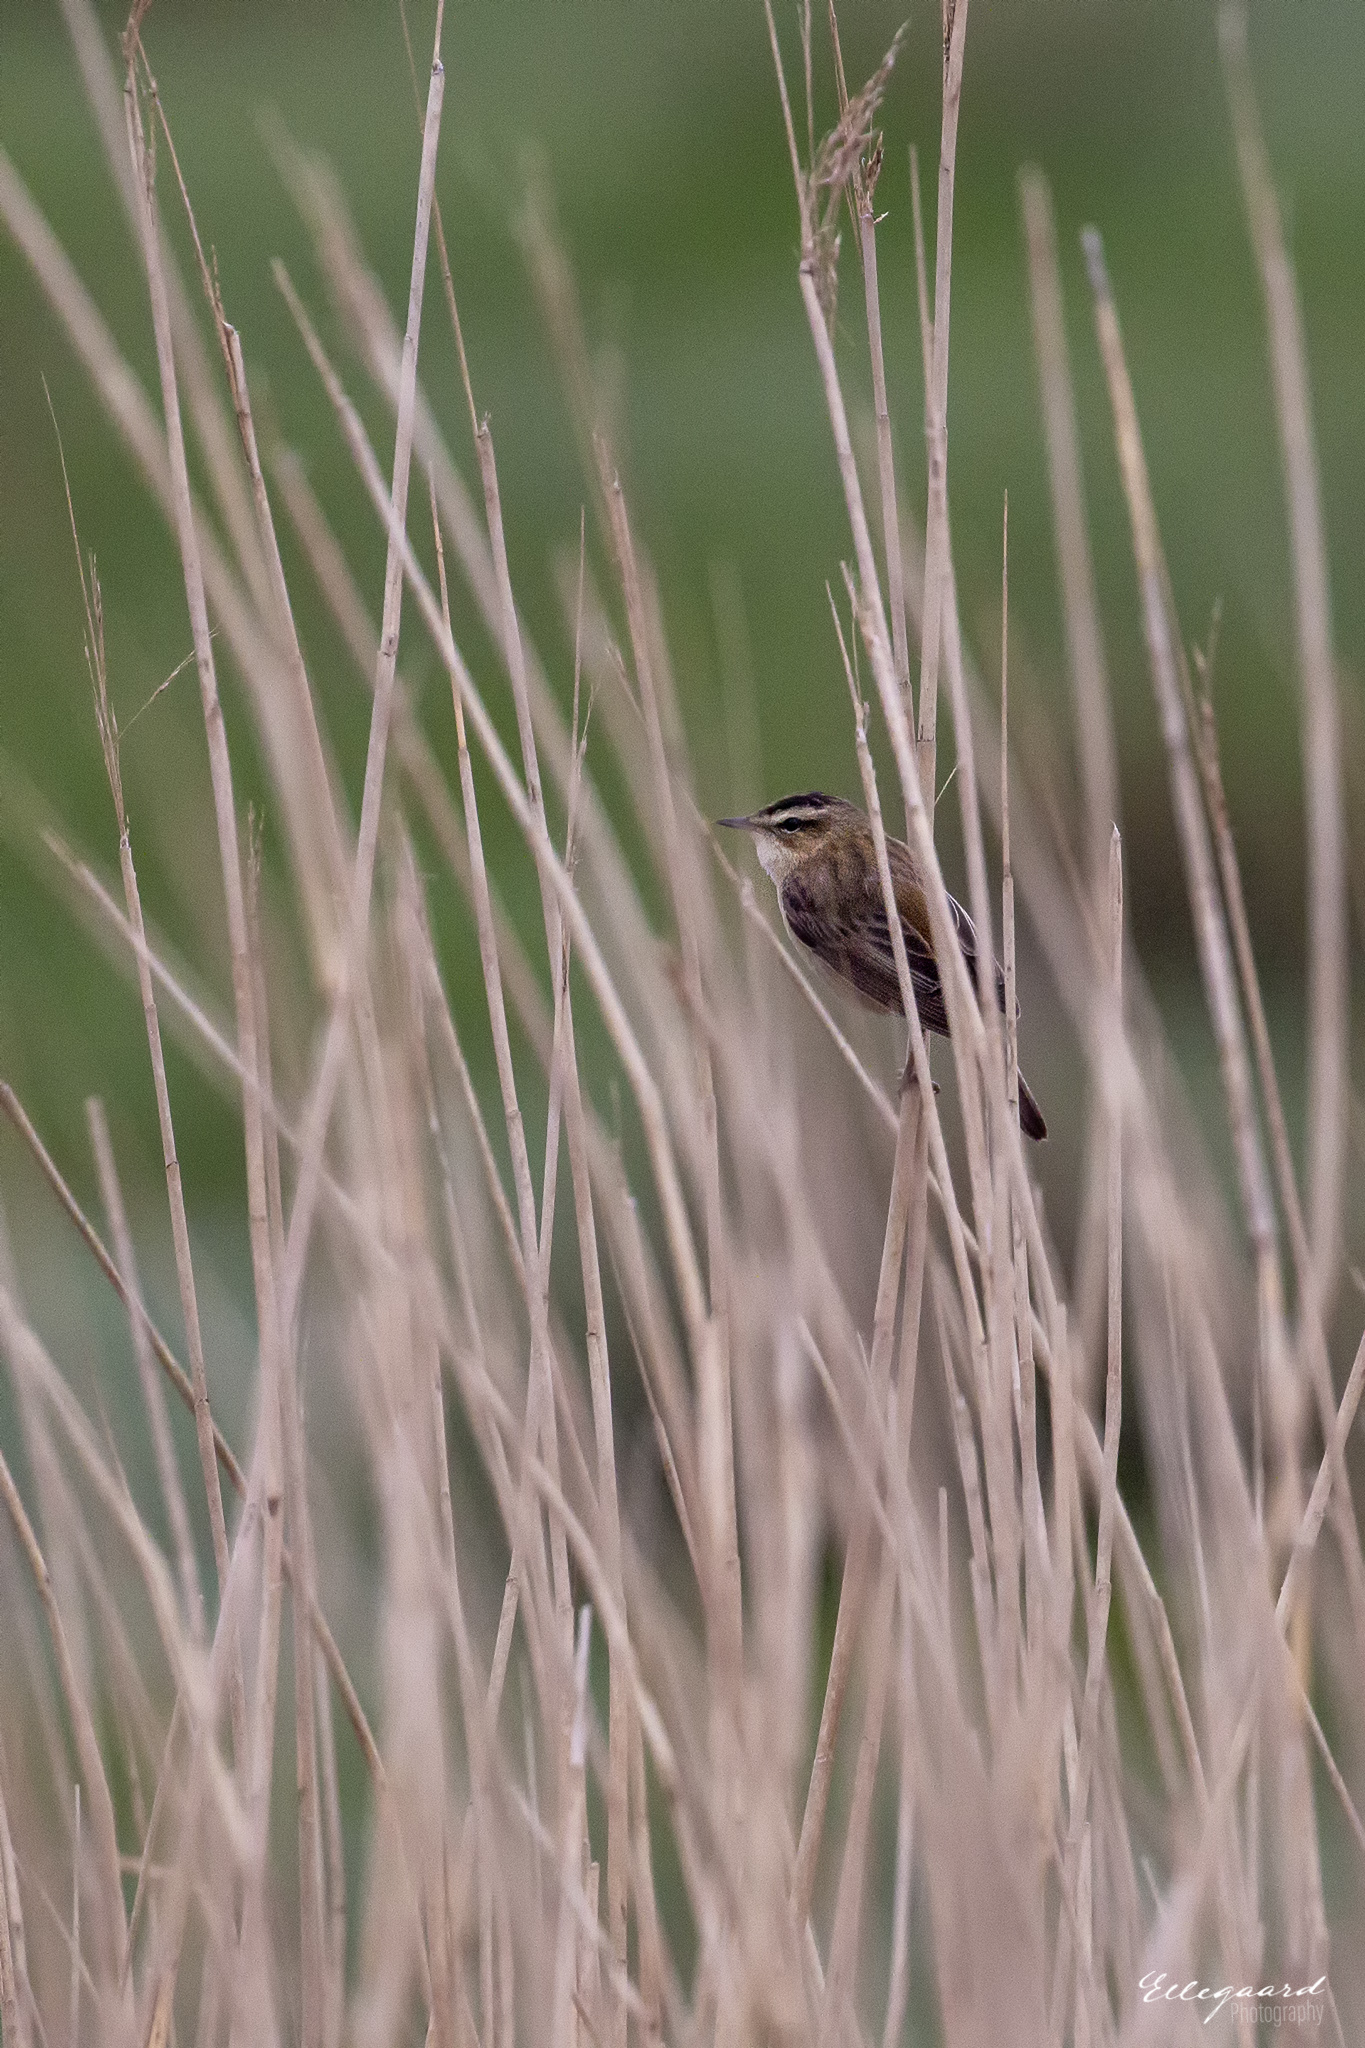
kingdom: Animalia
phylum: Chordata
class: Aves
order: Passeriformes
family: Acrocephalidae
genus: Acrocephalus
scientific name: Acrocephalus schoenobaenus
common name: Sedge warbler
